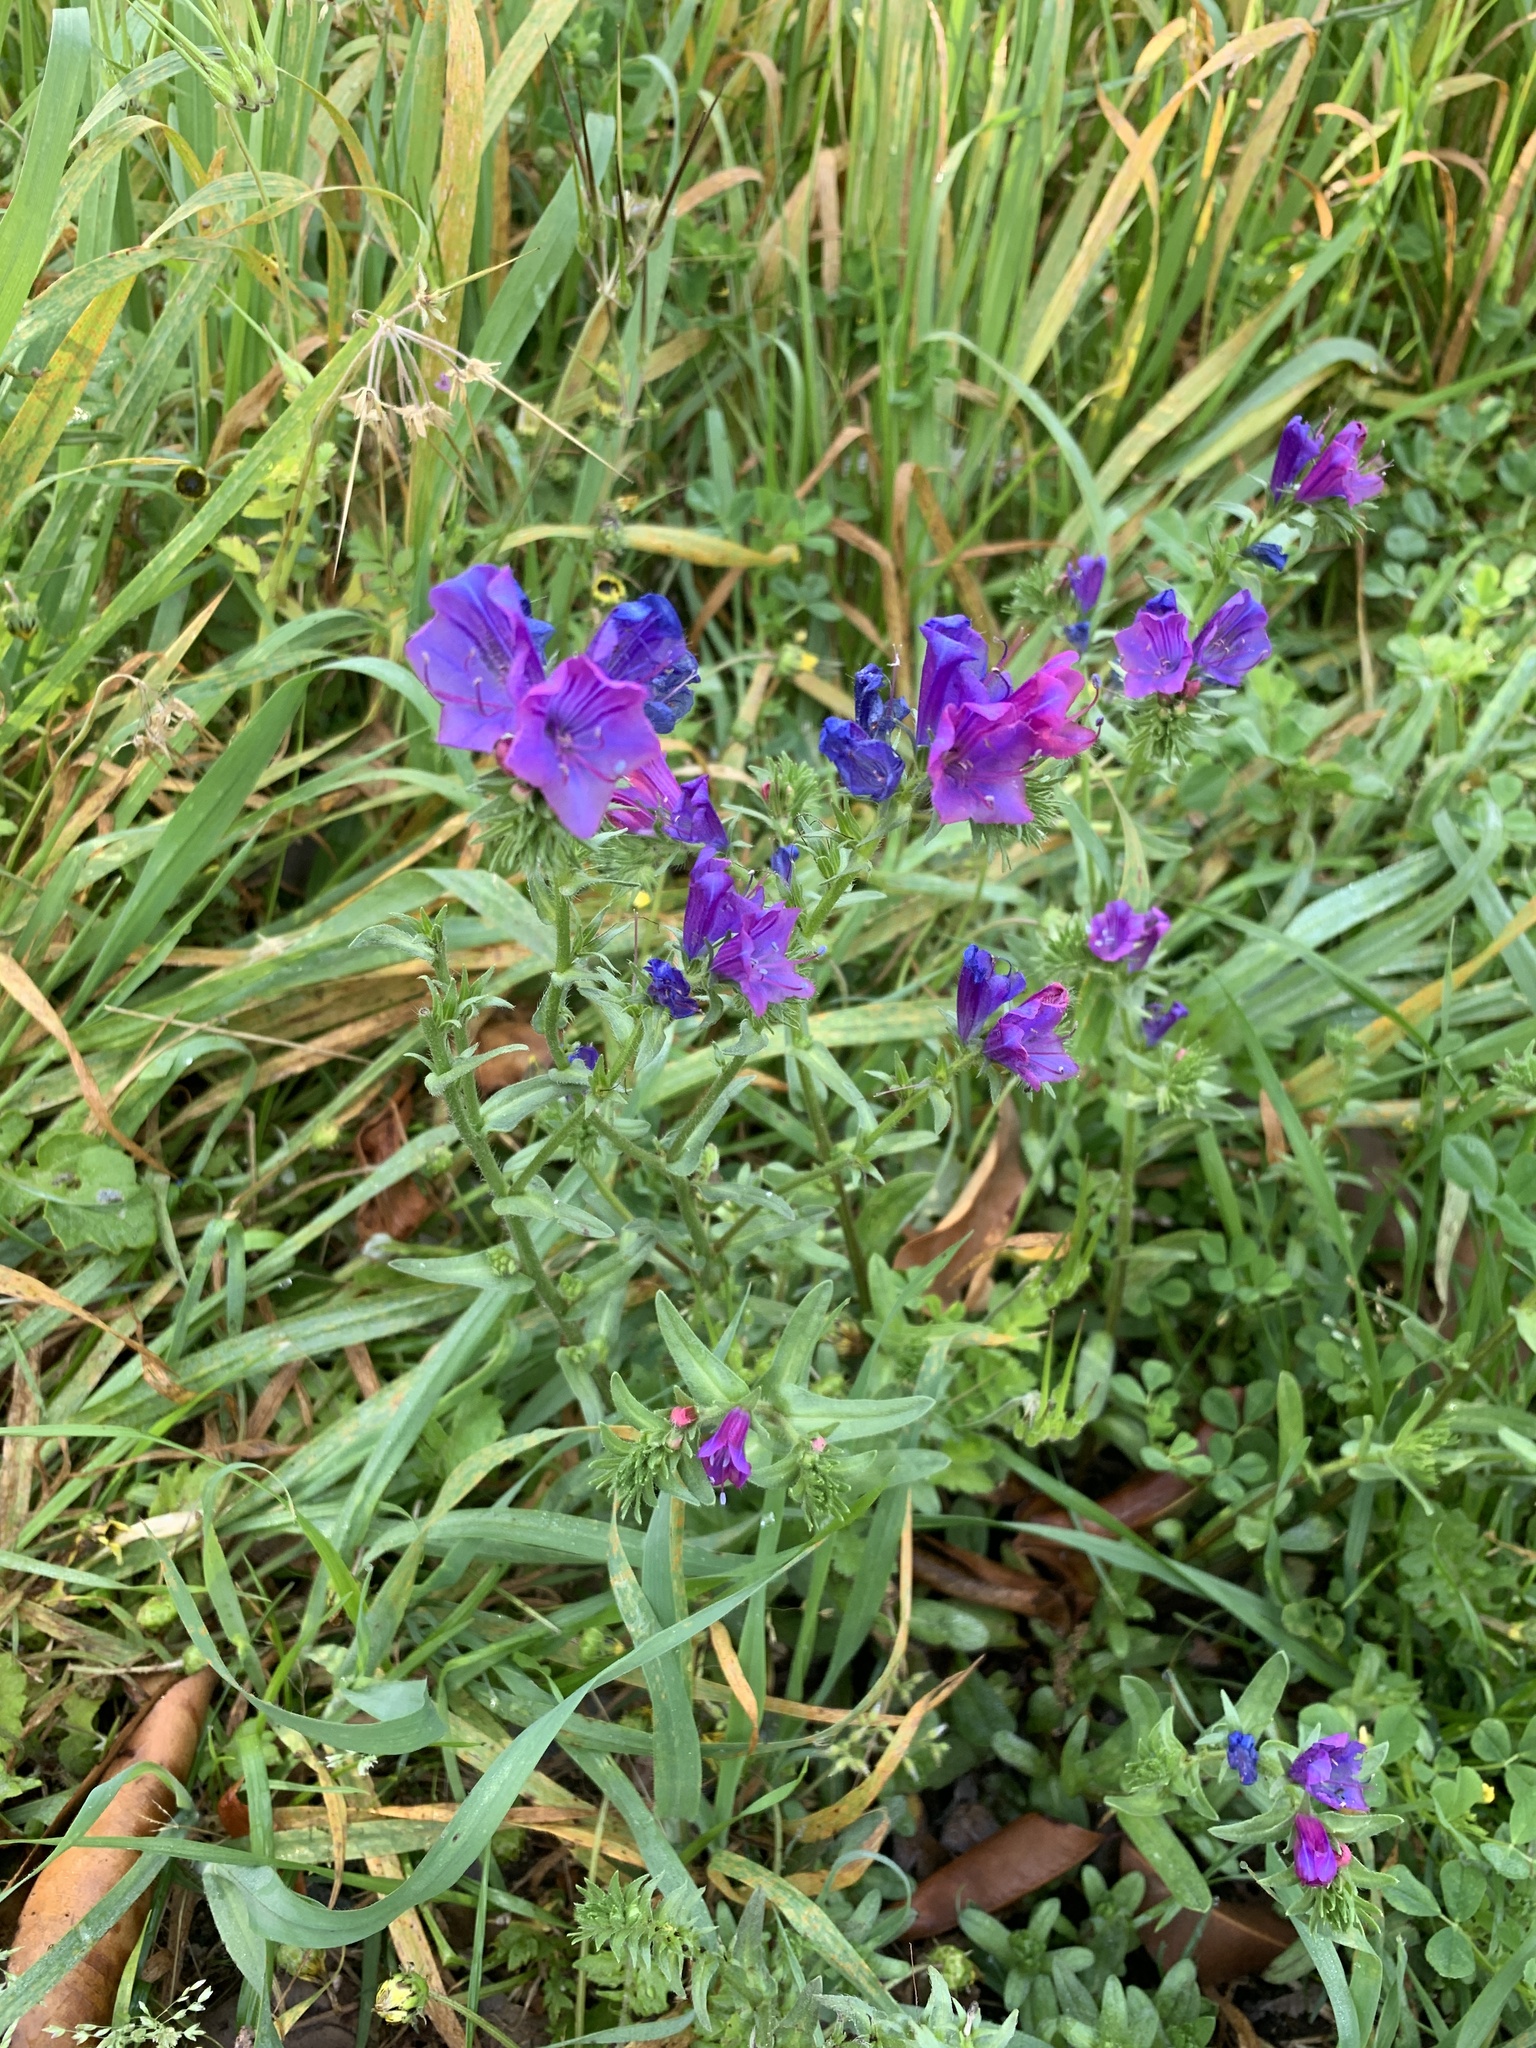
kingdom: Plantae
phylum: Tracheophyta
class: Magnoliopsida
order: Boraginales
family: Boraginaceae
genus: Echium
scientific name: Echium plantagineum
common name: Purple viper's-bugloss
